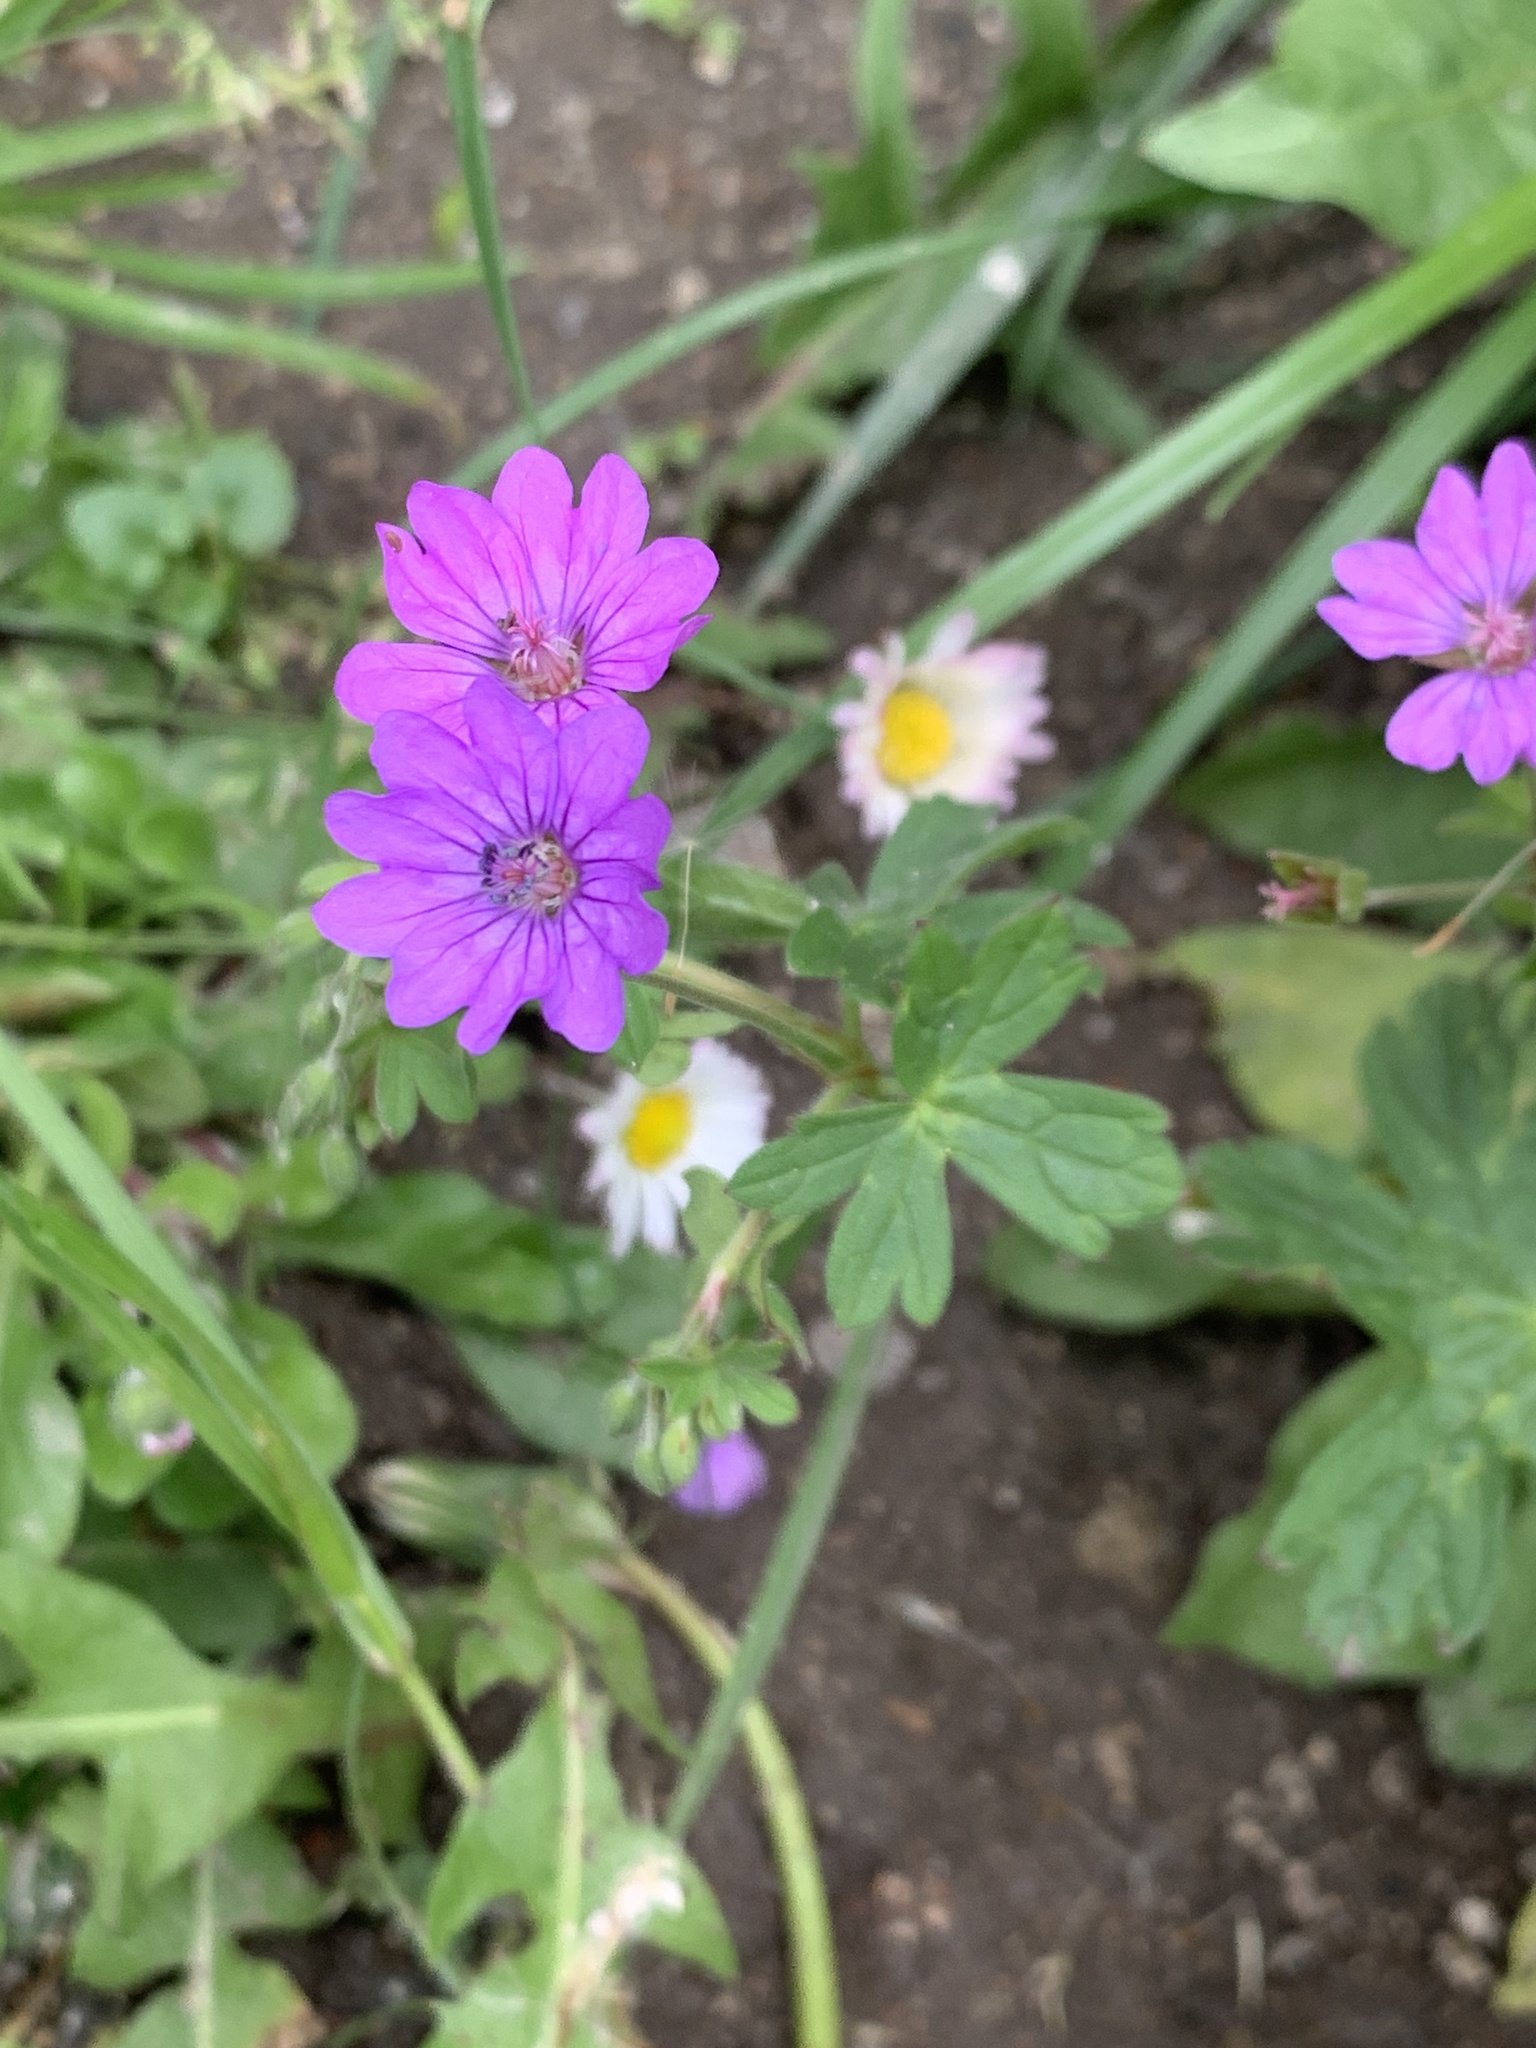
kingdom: Plantae
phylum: Tracheophyta
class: Magnoliopsida
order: Geraniales
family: Geraniaceae
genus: Geranium
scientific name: Geranium pyrenaicum
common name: Hedgerow crane's-bill
